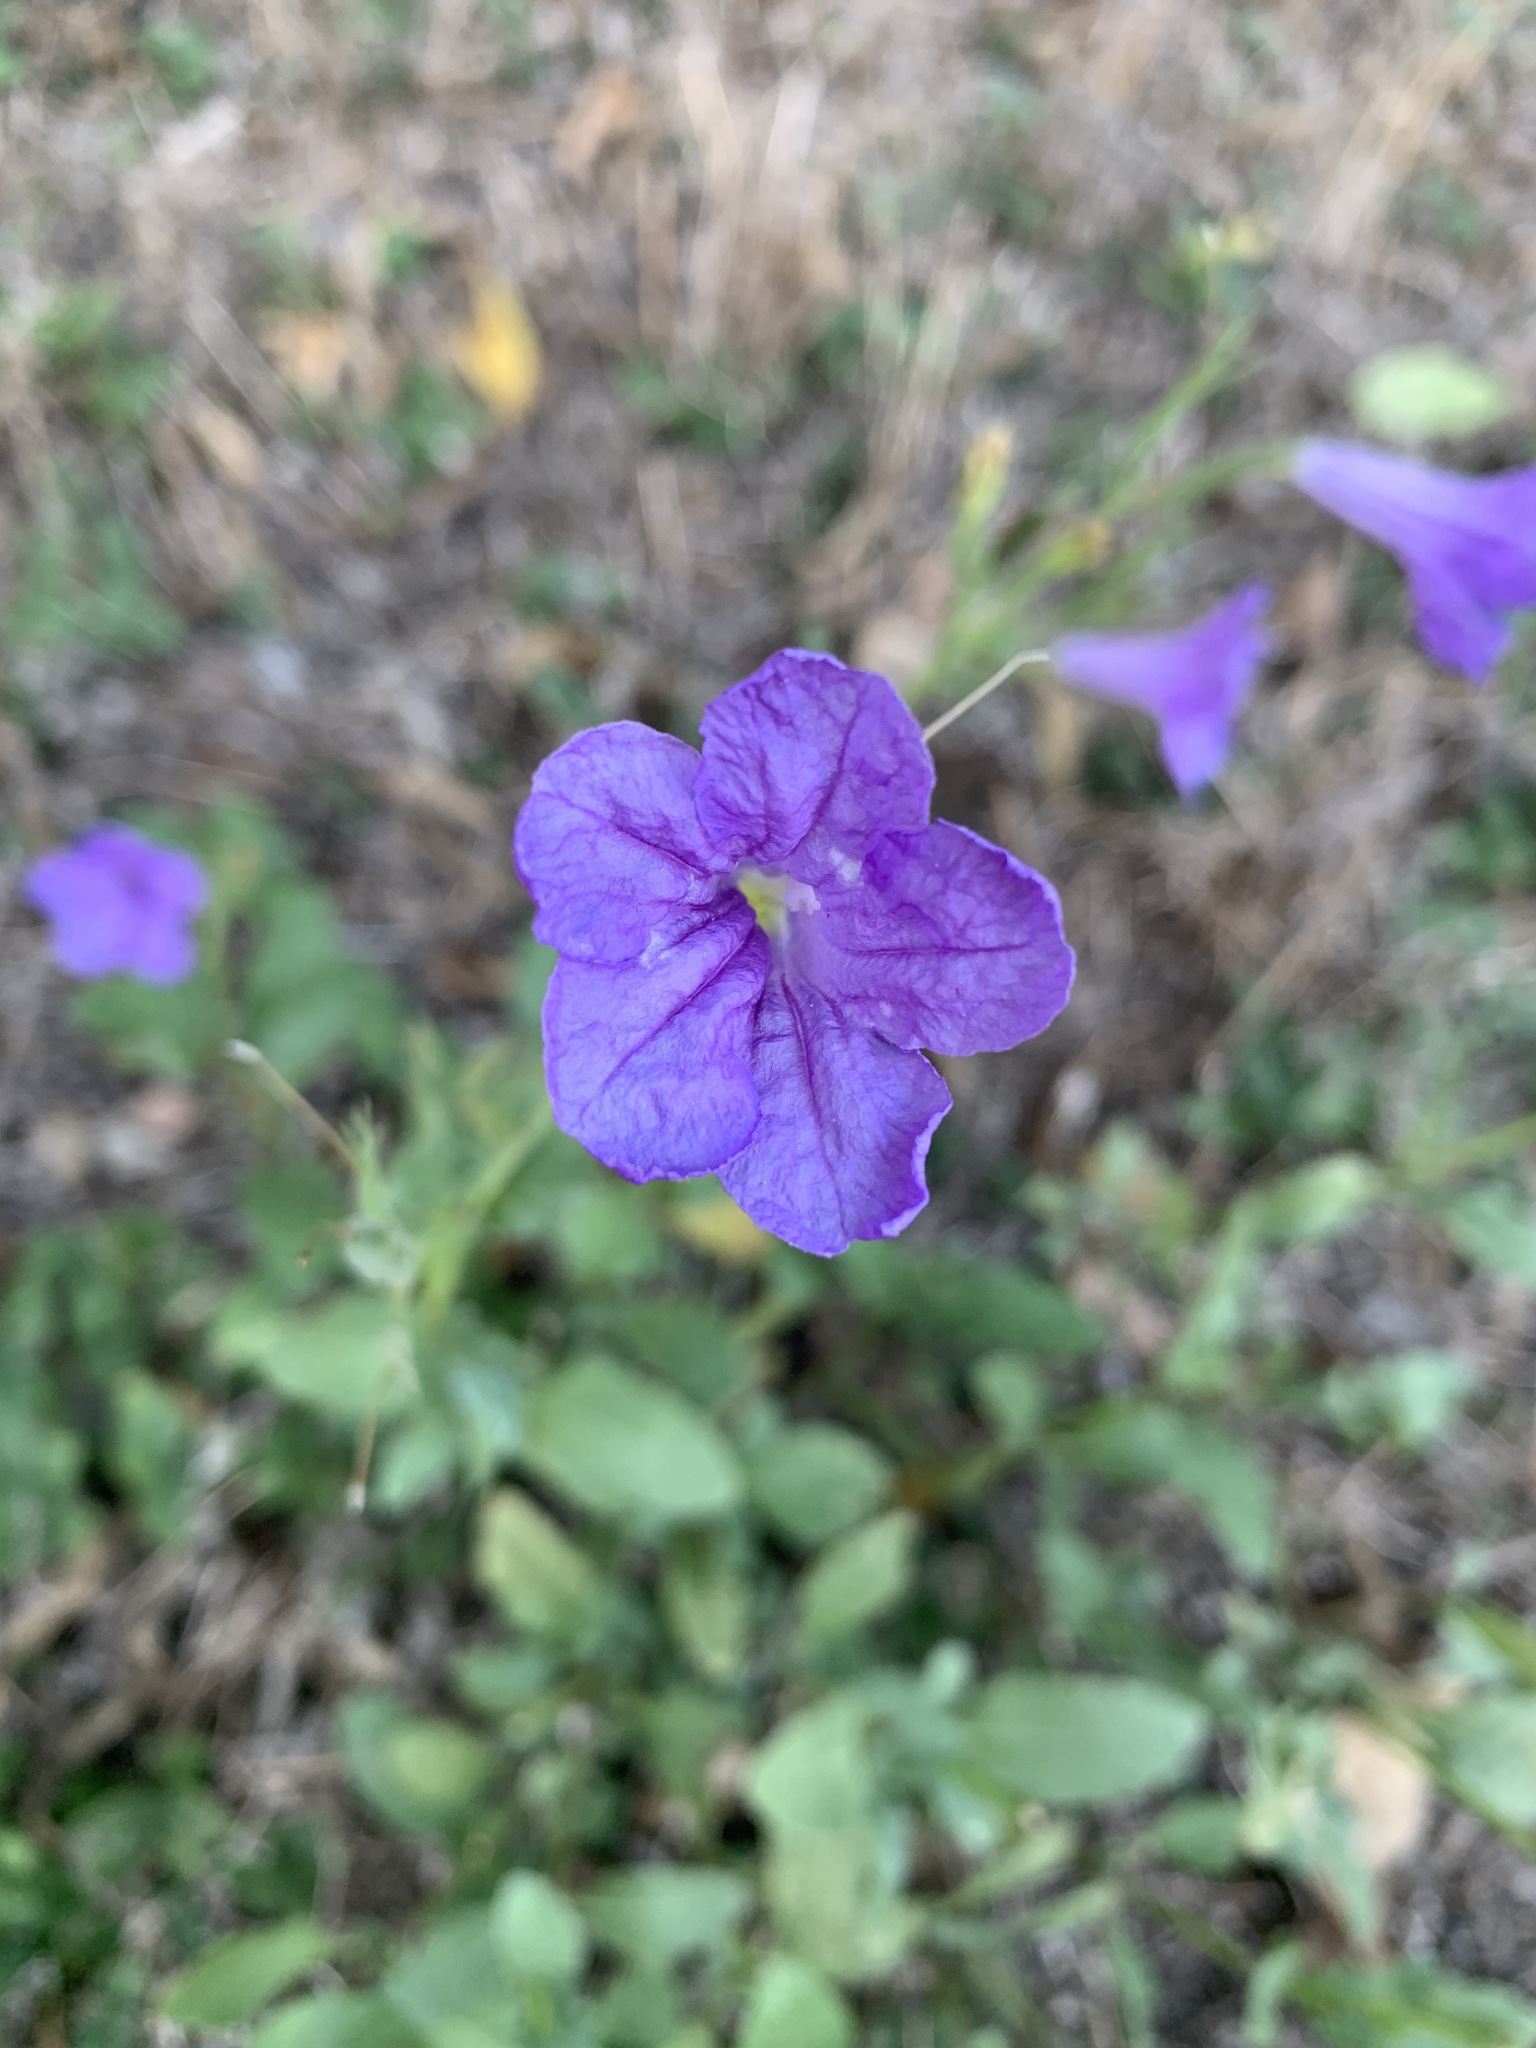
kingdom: Plantae
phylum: Tracheophyta
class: Magnoliopsida
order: Lamiales
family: Acanthaceae
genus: Ruellia
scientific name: Ruellia ciliatiflora
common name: Hairyflower wild petunia
